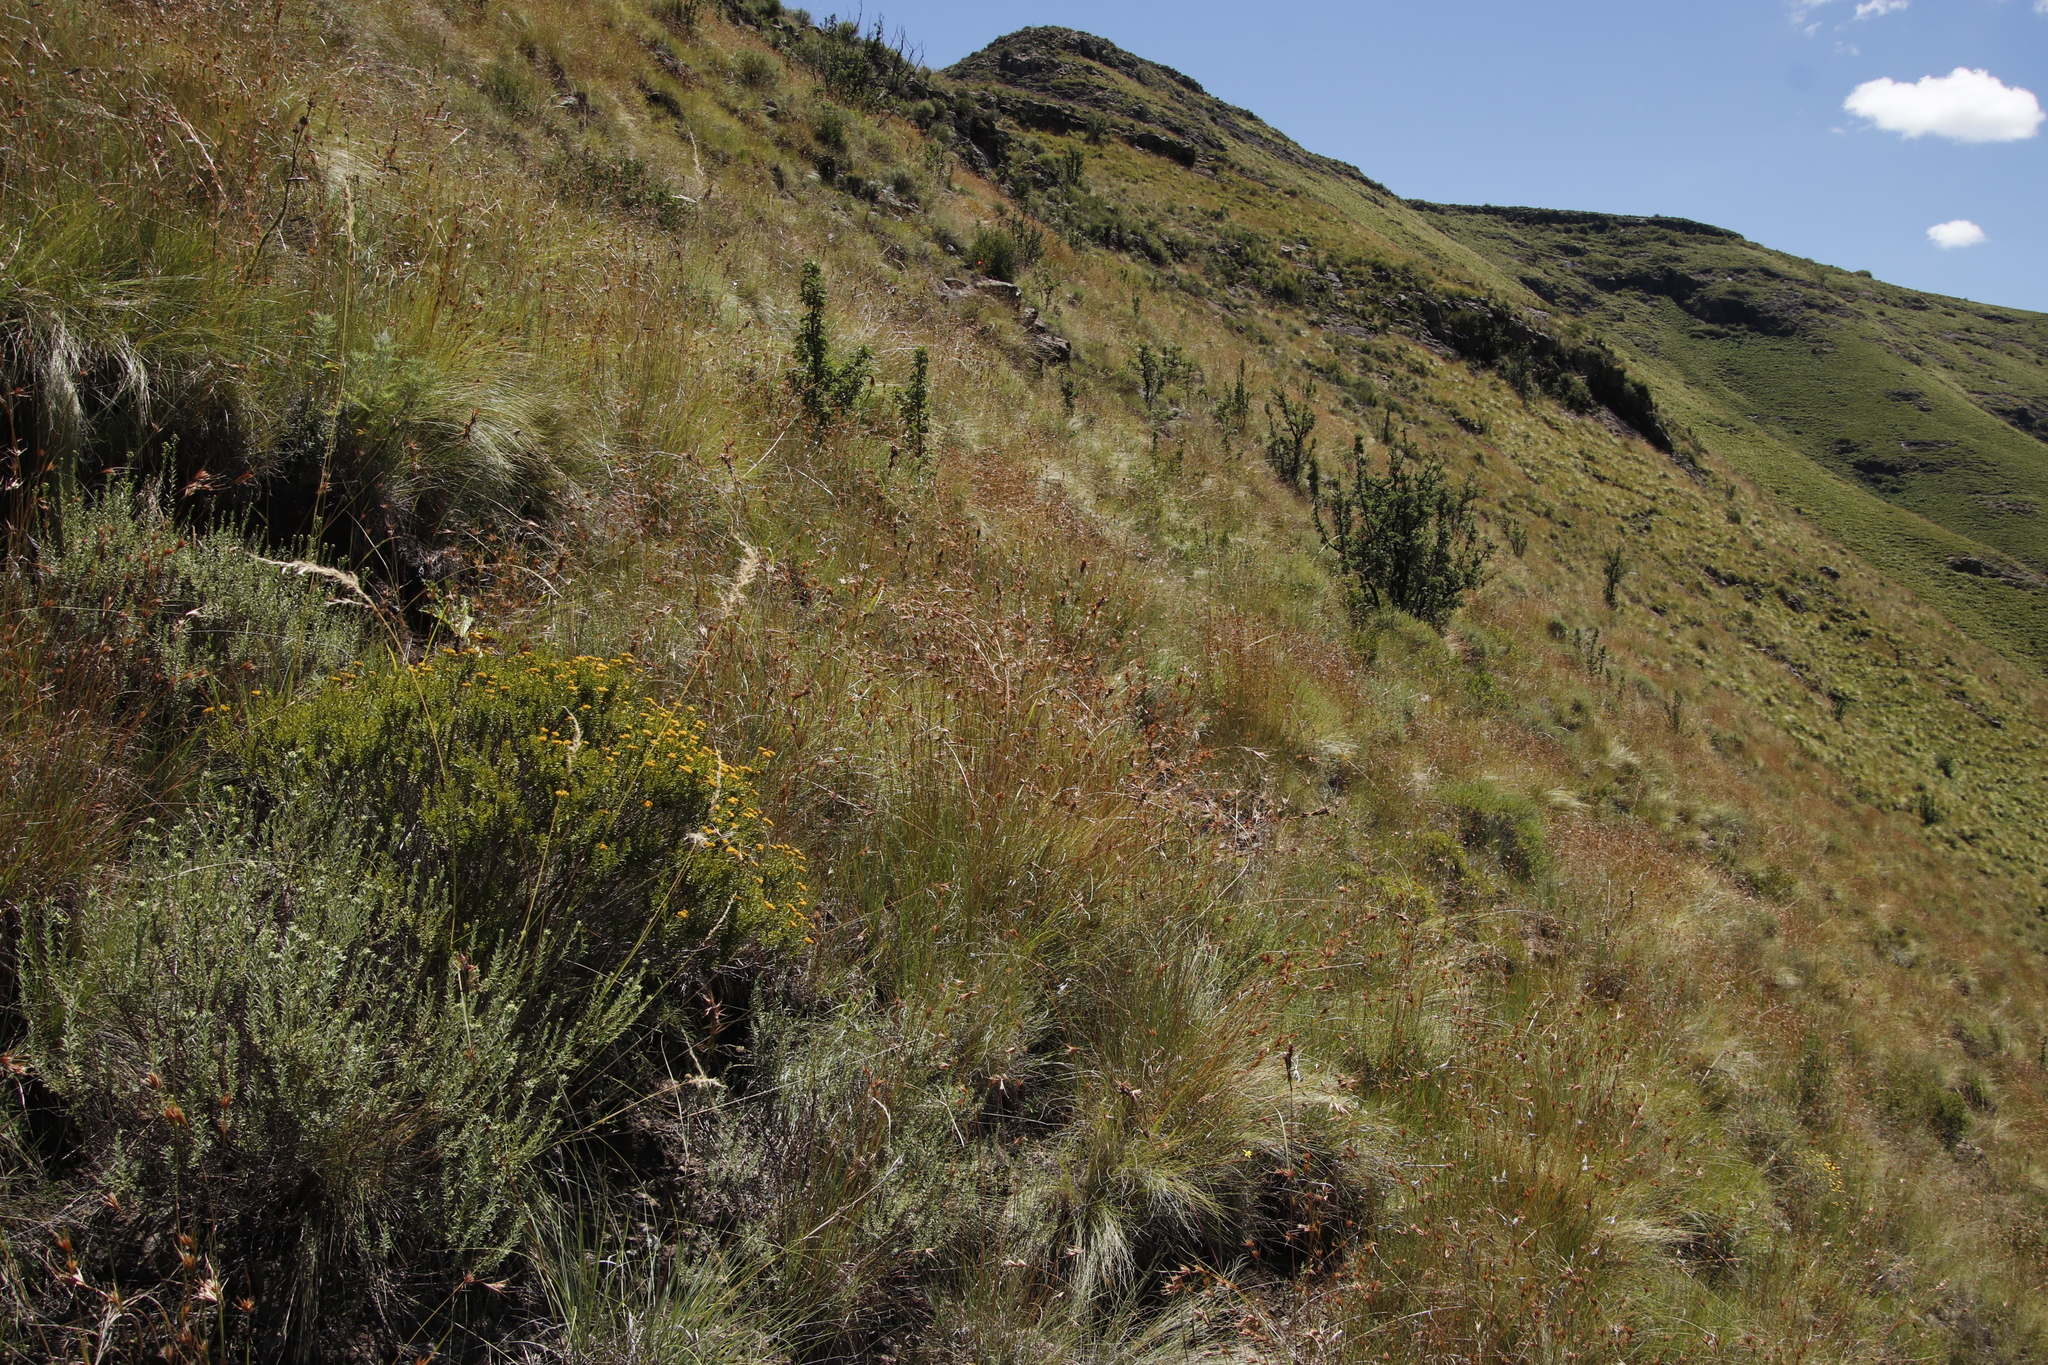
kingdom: Plantae
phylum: Tracheophyta
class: Liliopsida
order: Poales
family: Poaceae
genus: Themeda
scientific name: Themeda triandra
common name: Kangaroo grass
